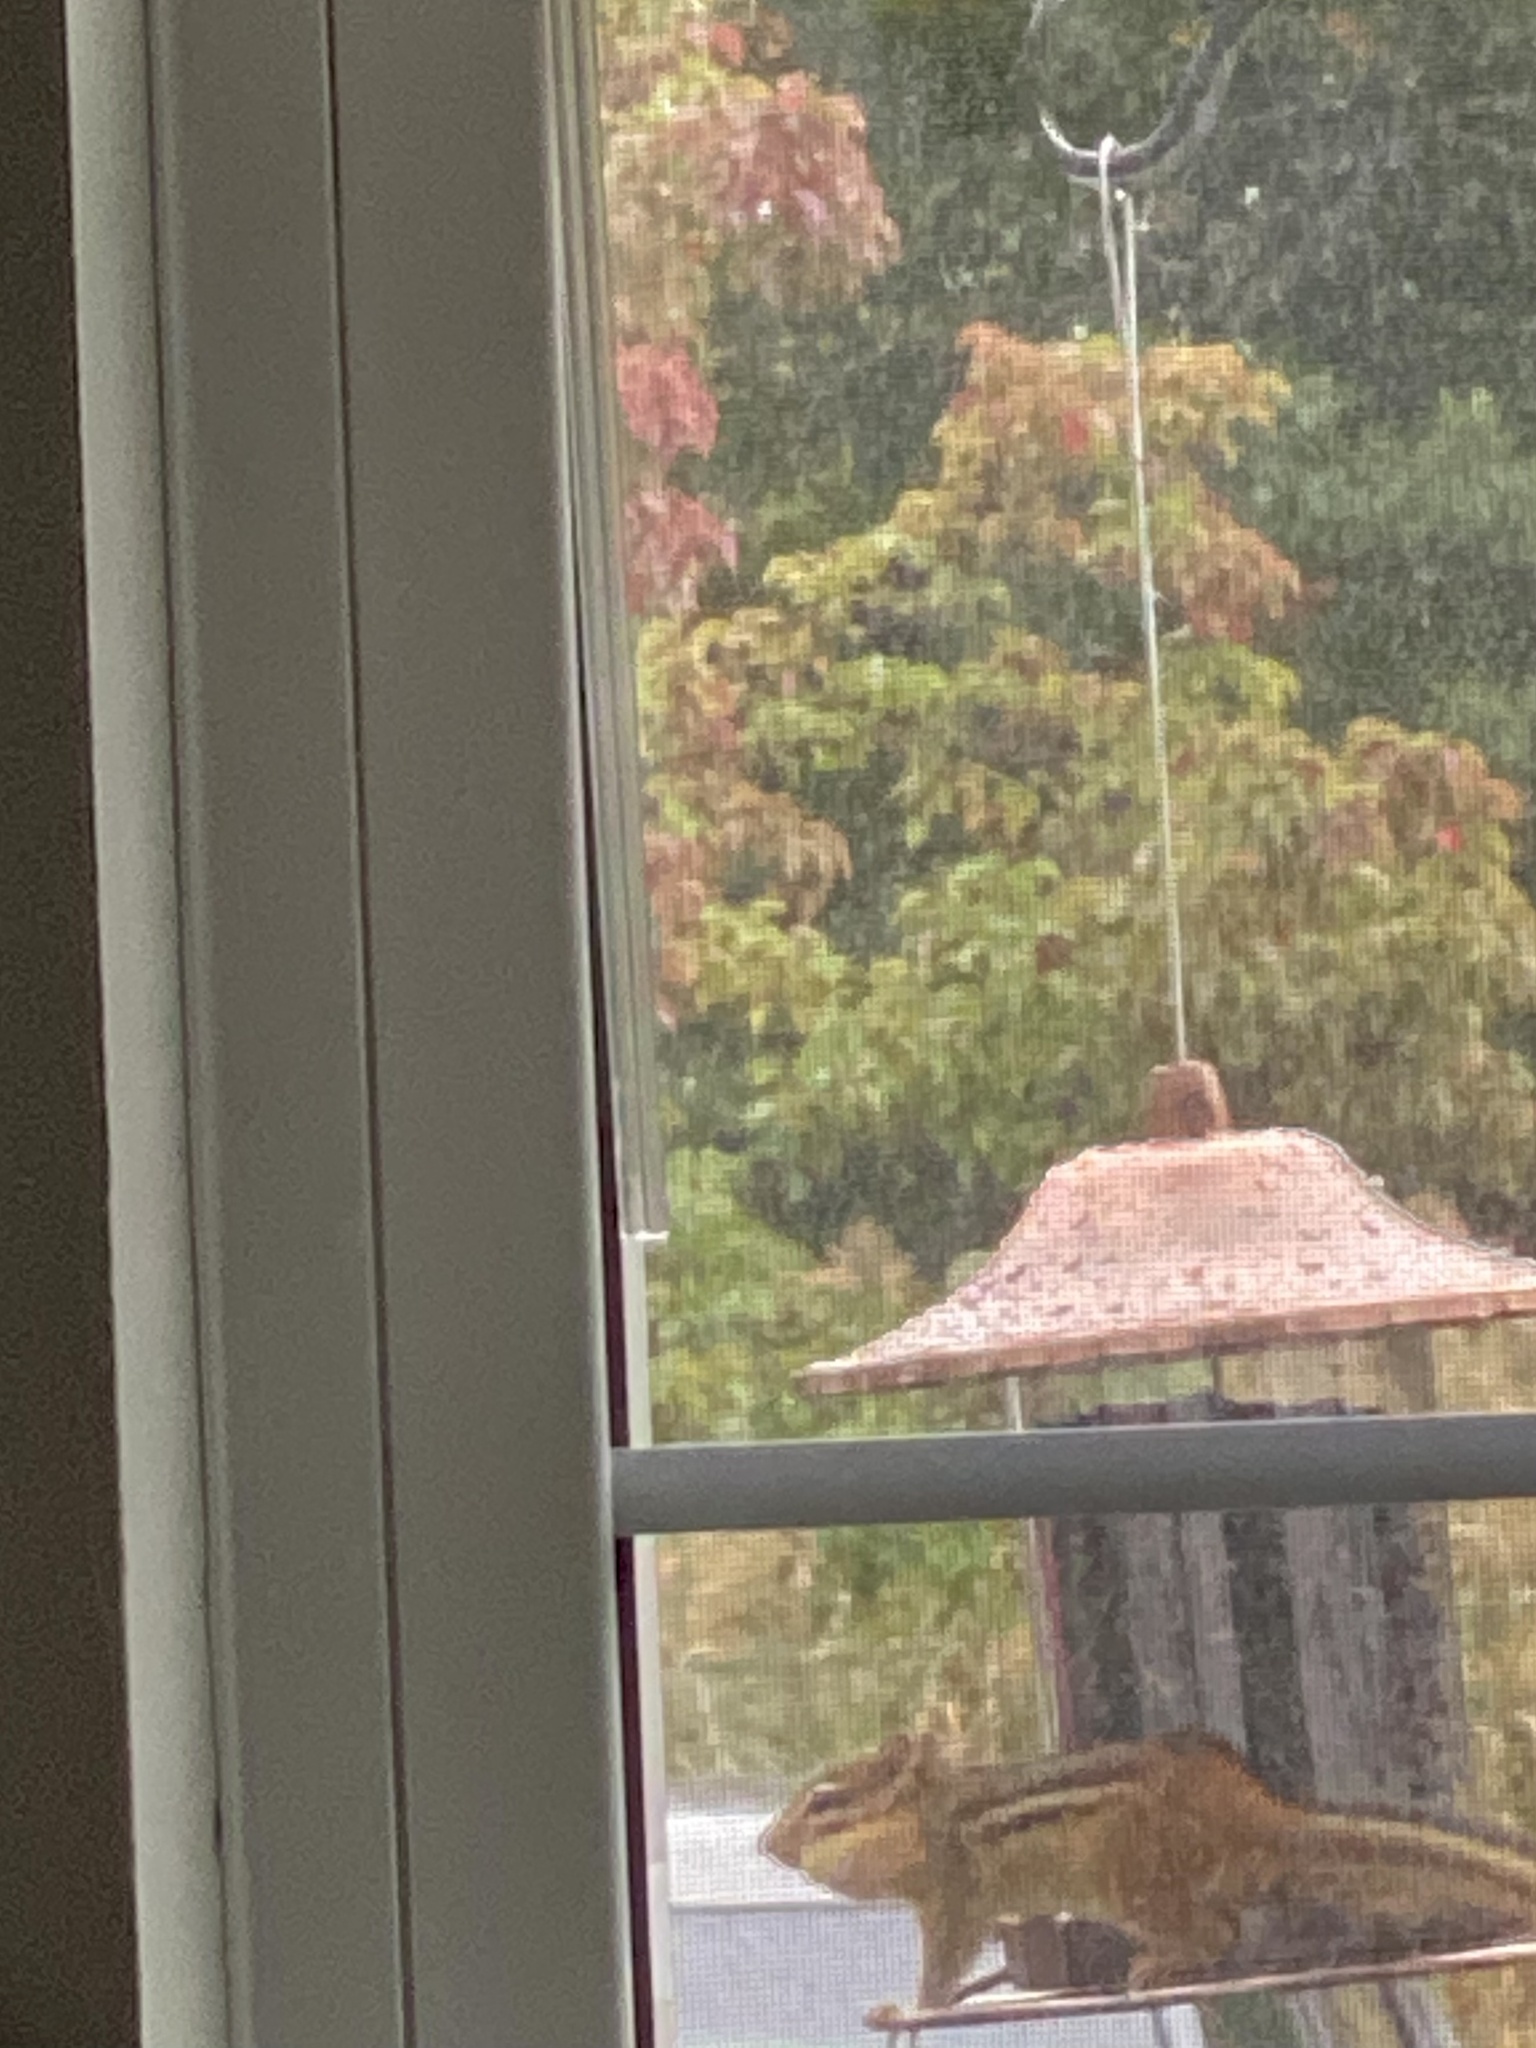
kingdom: Animalia
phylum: Chordata
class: Mammalia
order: Rodentia
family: Sciuridae
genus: Tamias
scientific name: Tamias striatus
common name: Eastern chipmunk
